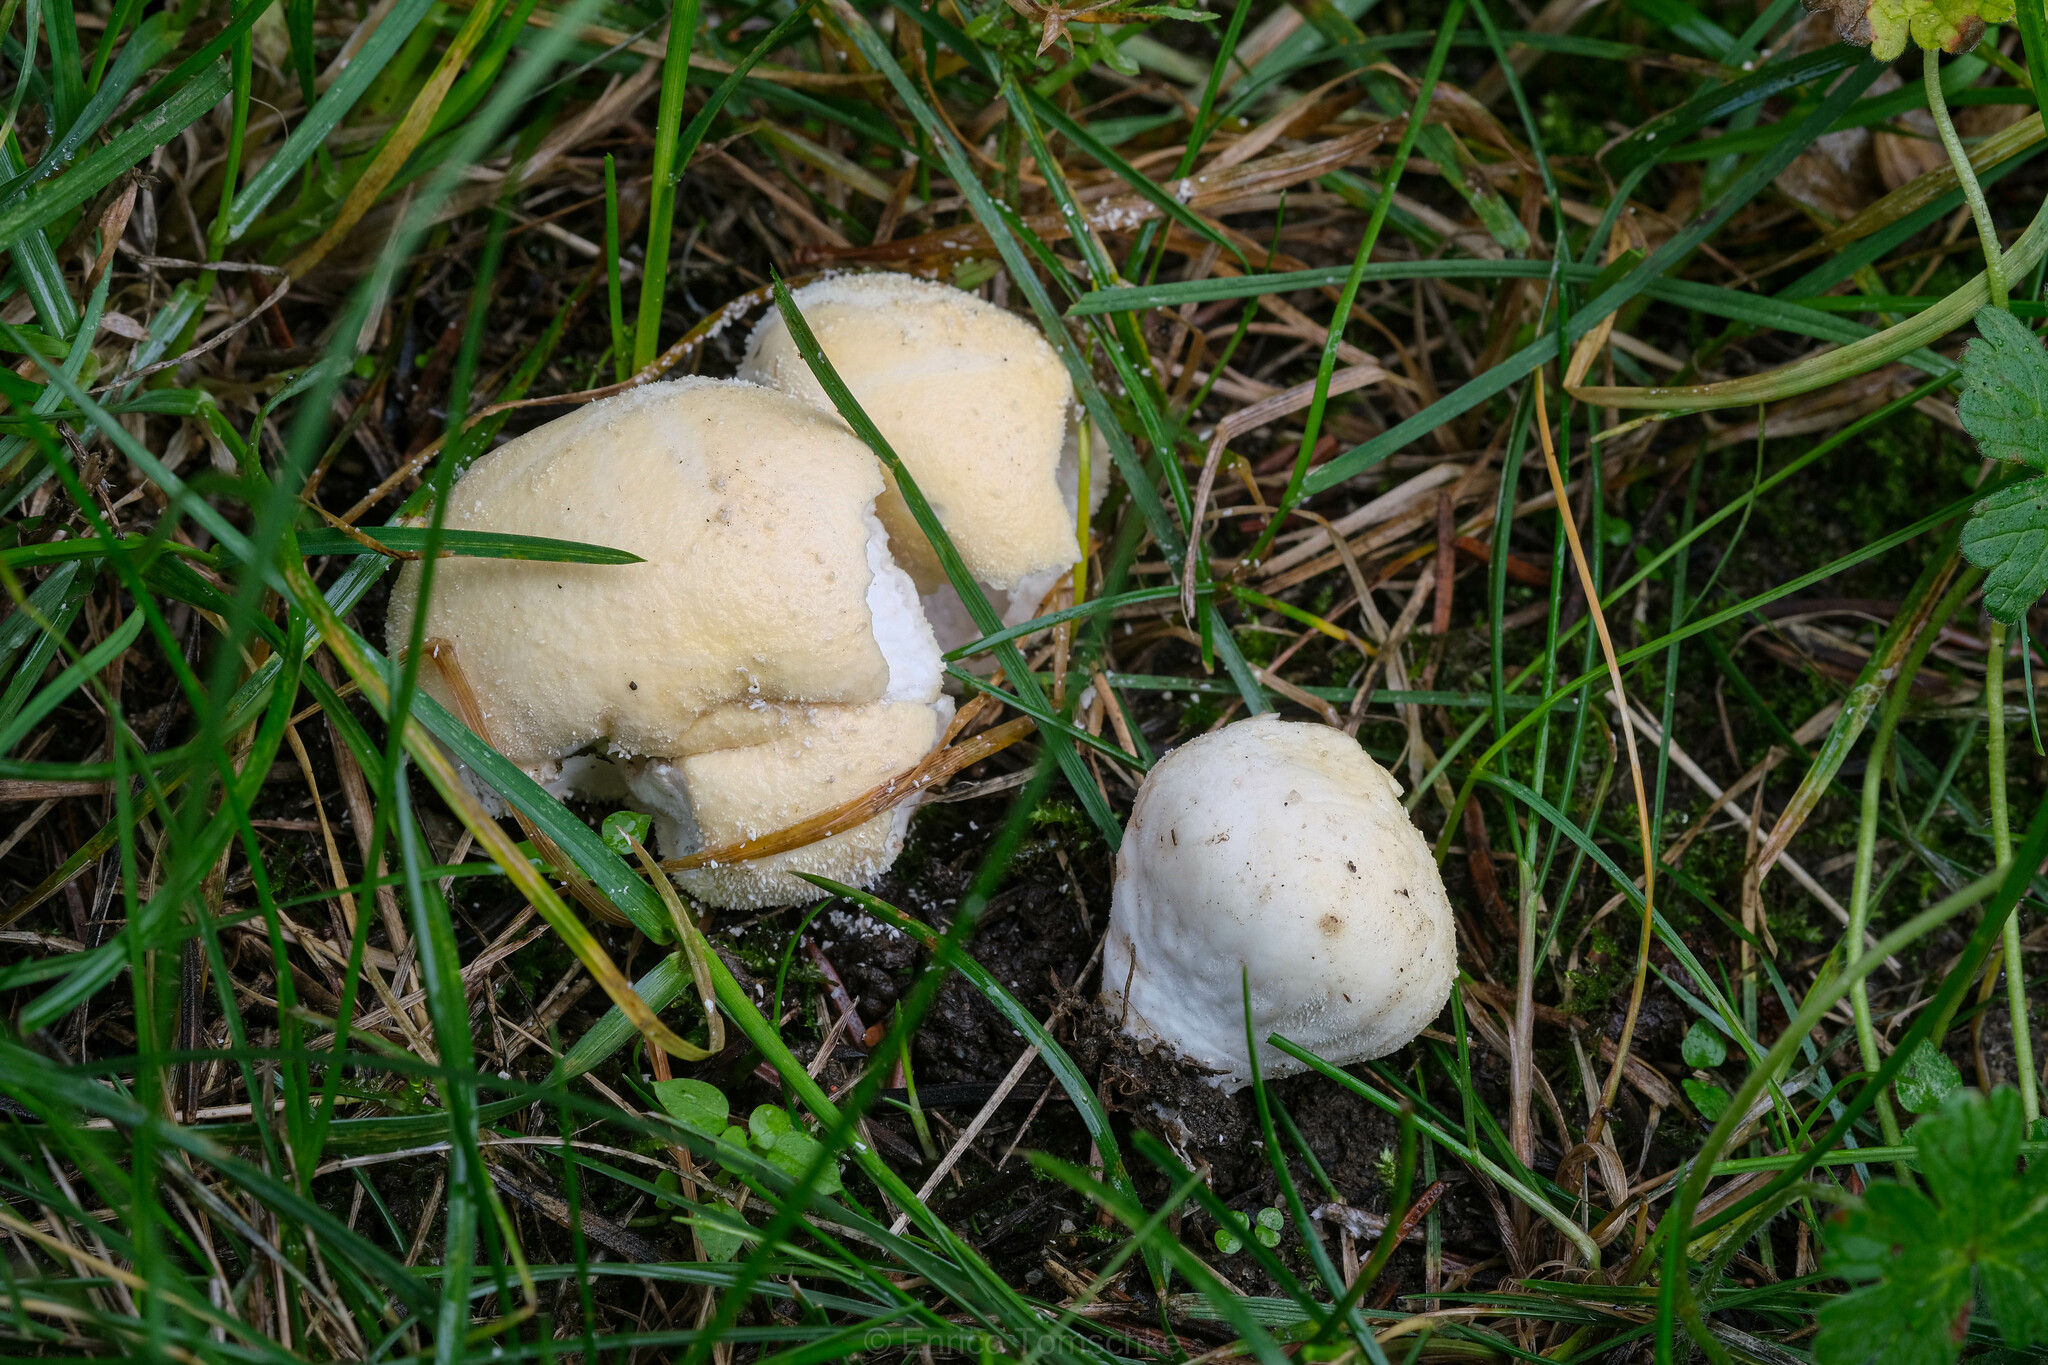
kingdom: Fungi
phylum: Basidiomycota
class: Agaricomycetes
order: Agaricales
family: Lycoperdaceae
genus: Lycoperdon
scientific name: Lycoperdon pratense
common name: Meadow puffball
